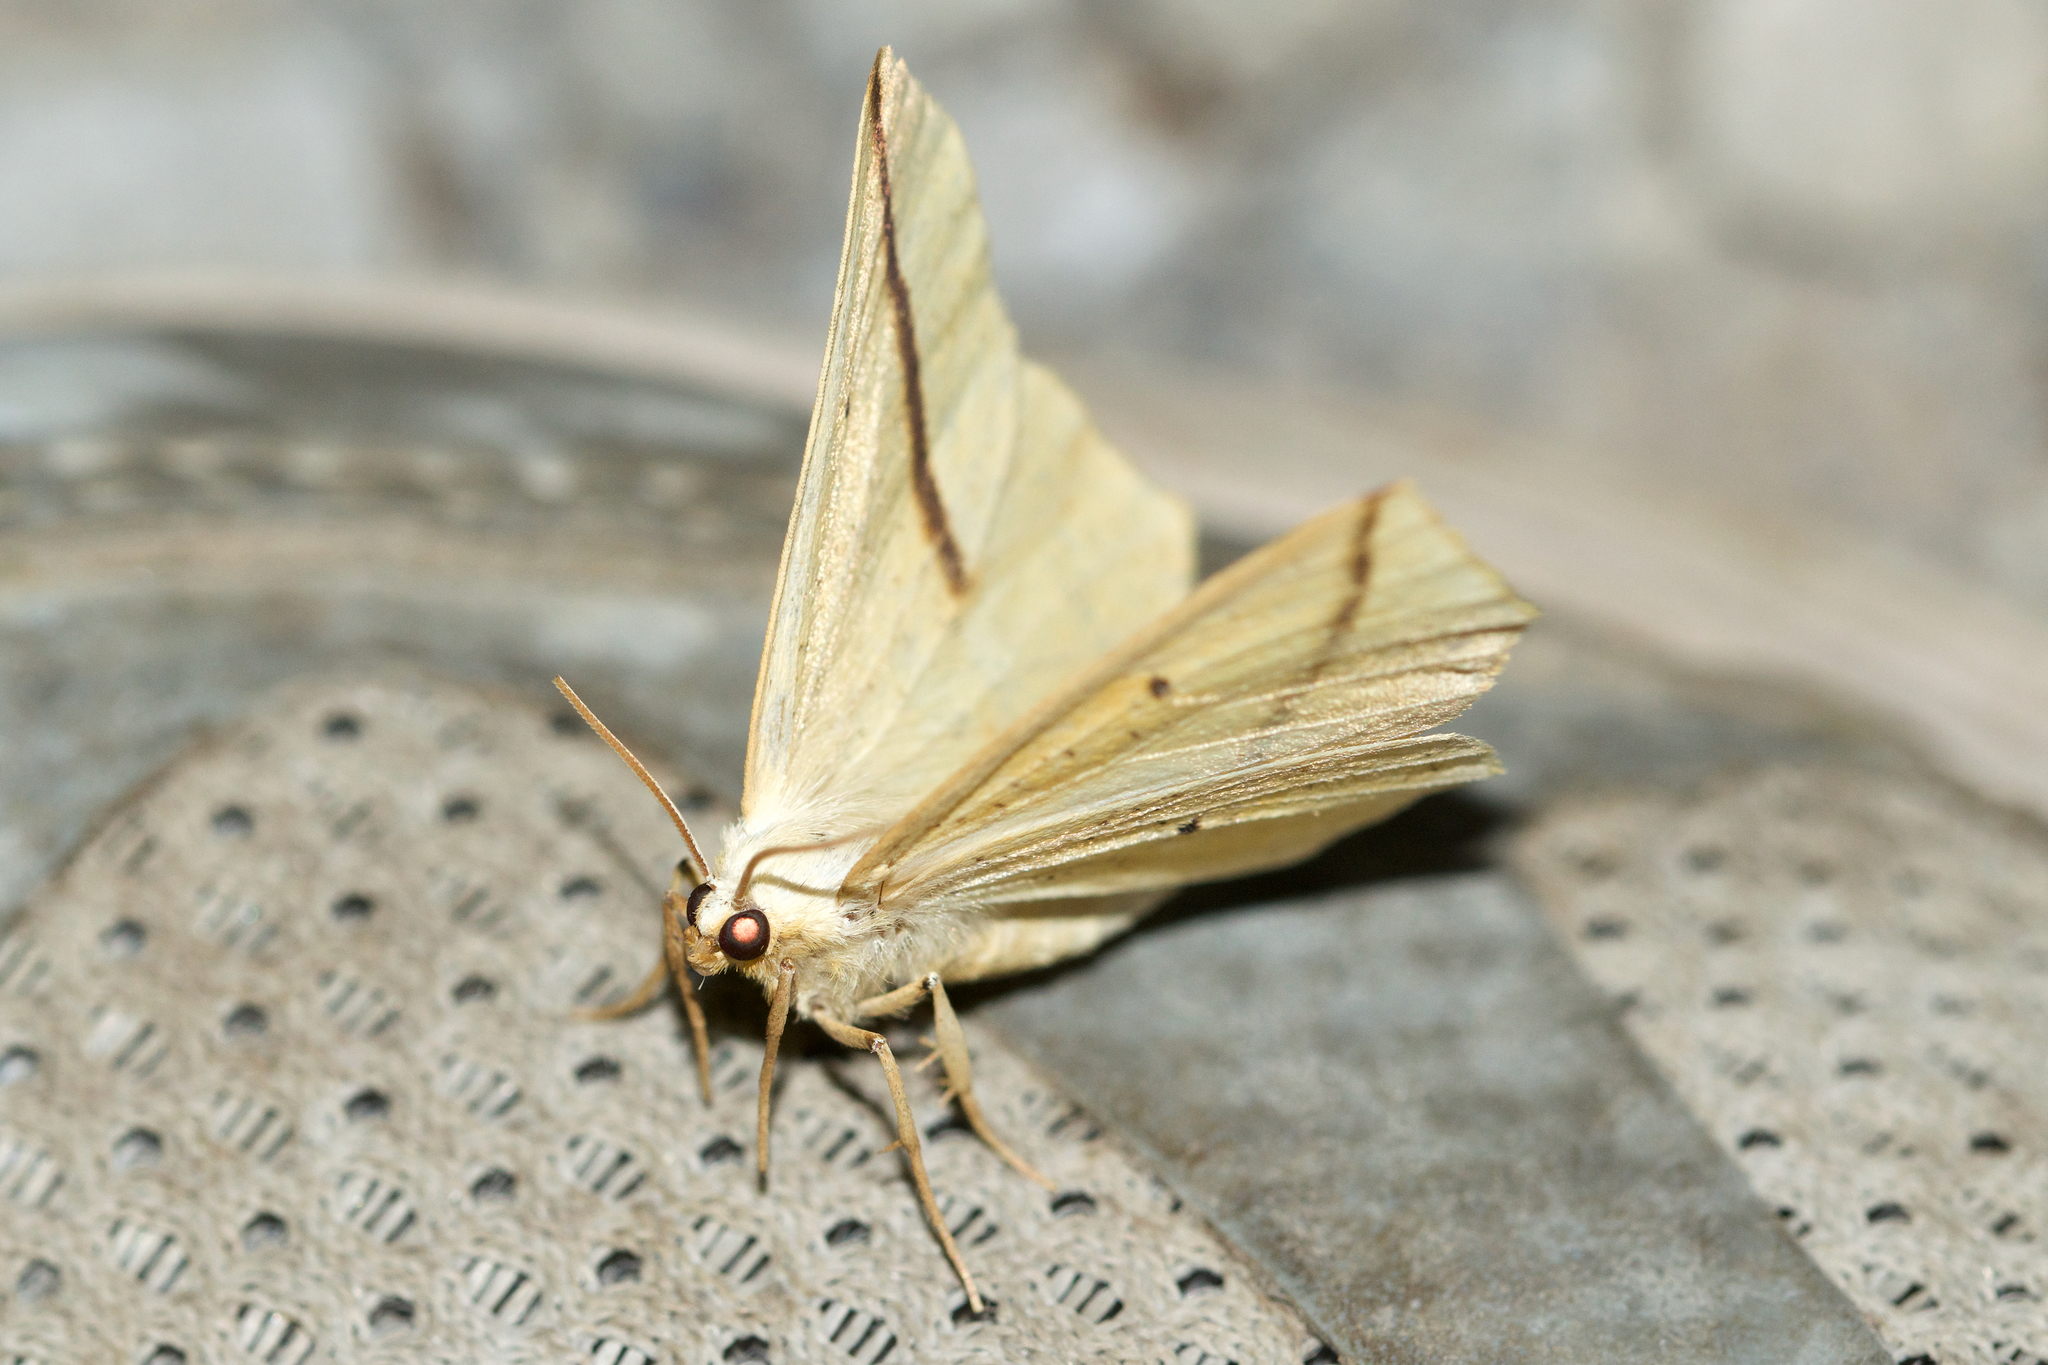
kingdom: Animalia
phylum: Arthropoda
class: Insecta
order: Lepidoptera
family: Geometridae
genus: Tetracis
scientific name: Tetracis crocallata
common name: Yellow slant-line
